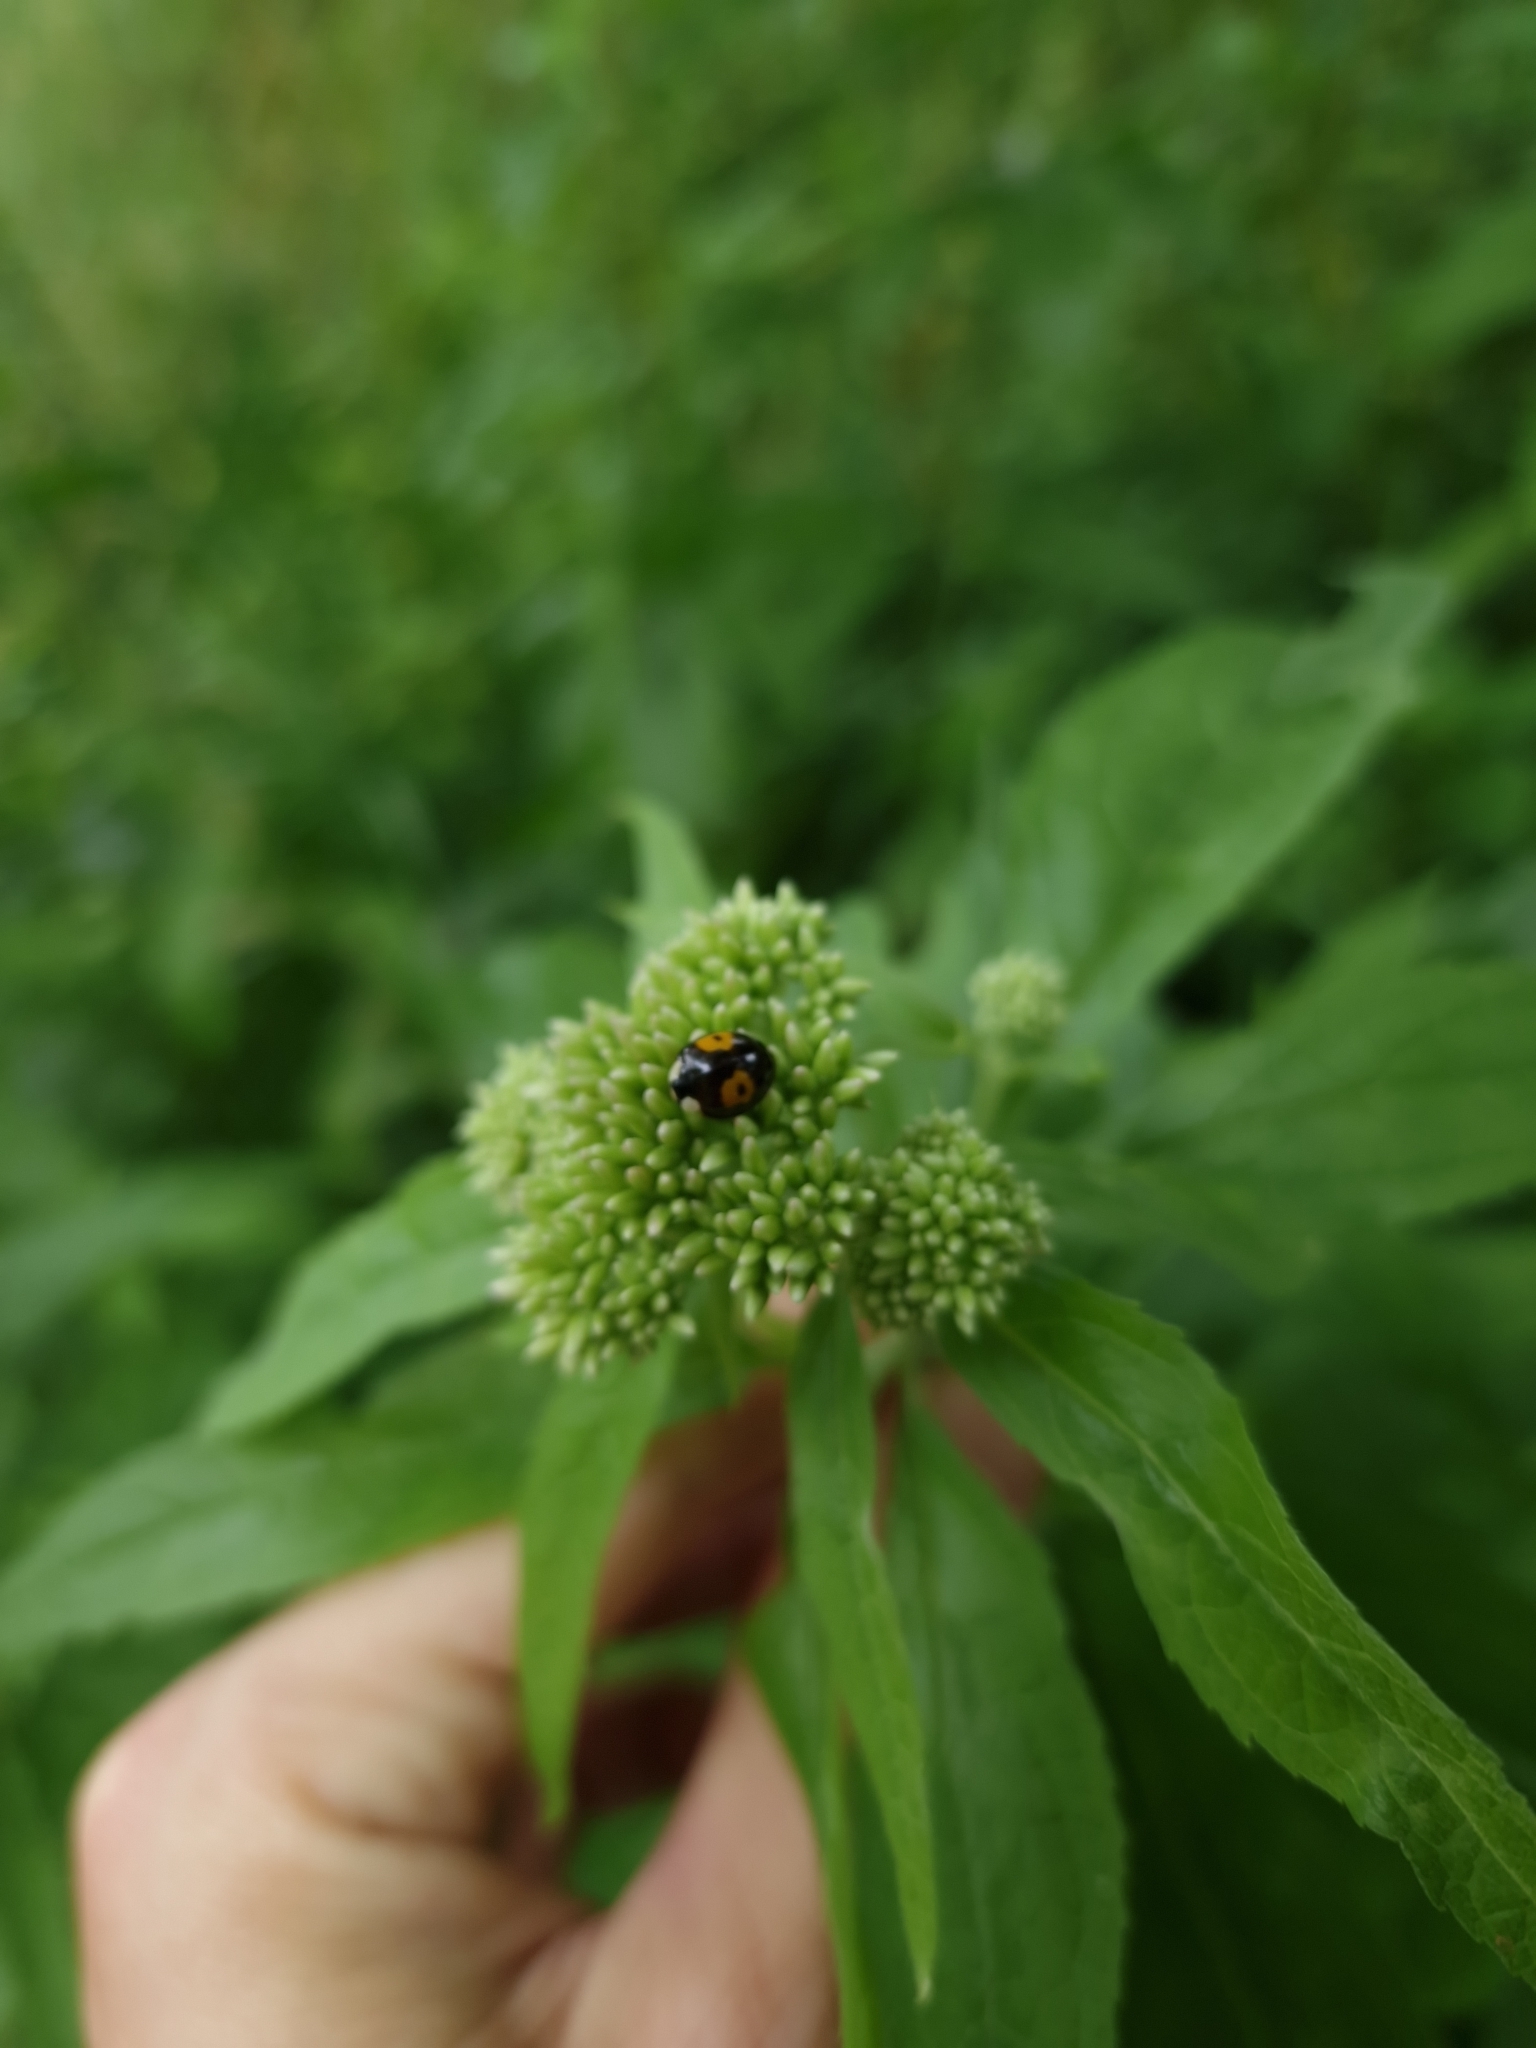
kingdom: Animalia
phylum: Arthropoda
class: Insecta
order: Coleoptera
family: Coccinellidae
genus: Harmonia
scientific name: Harmonia axyridis
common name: Harlequin ladybird
